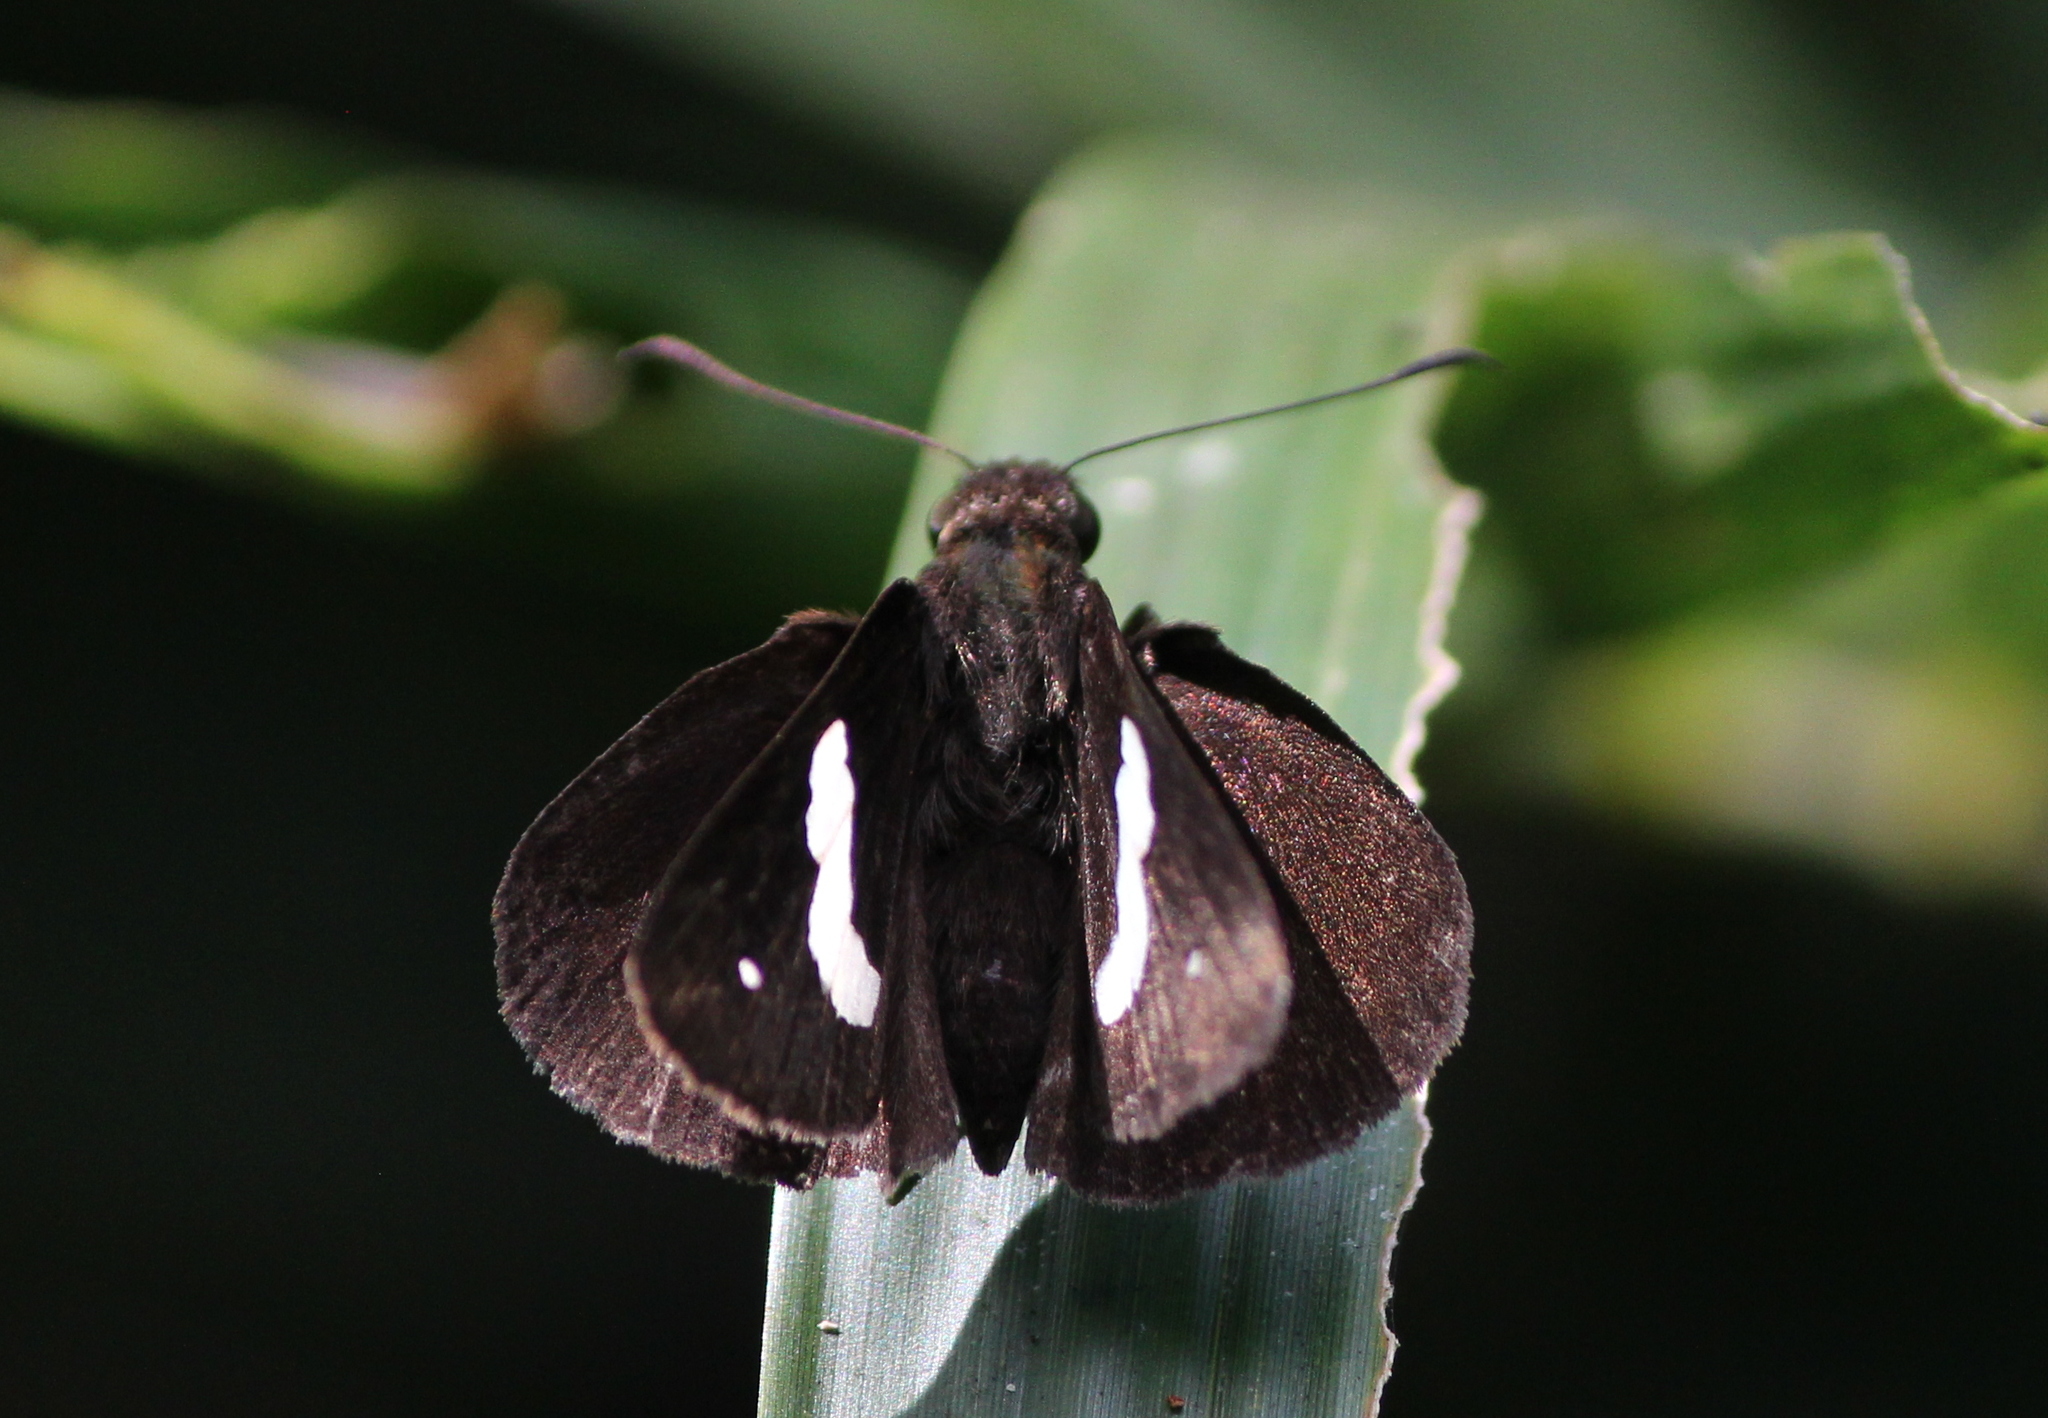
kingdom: Animalia
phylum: Arthropoda
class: Insecta
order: Lepidoptera
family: Hesperiidae
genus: Notocrypta
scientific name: Notocrypta paralysos
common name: Common banded demon
